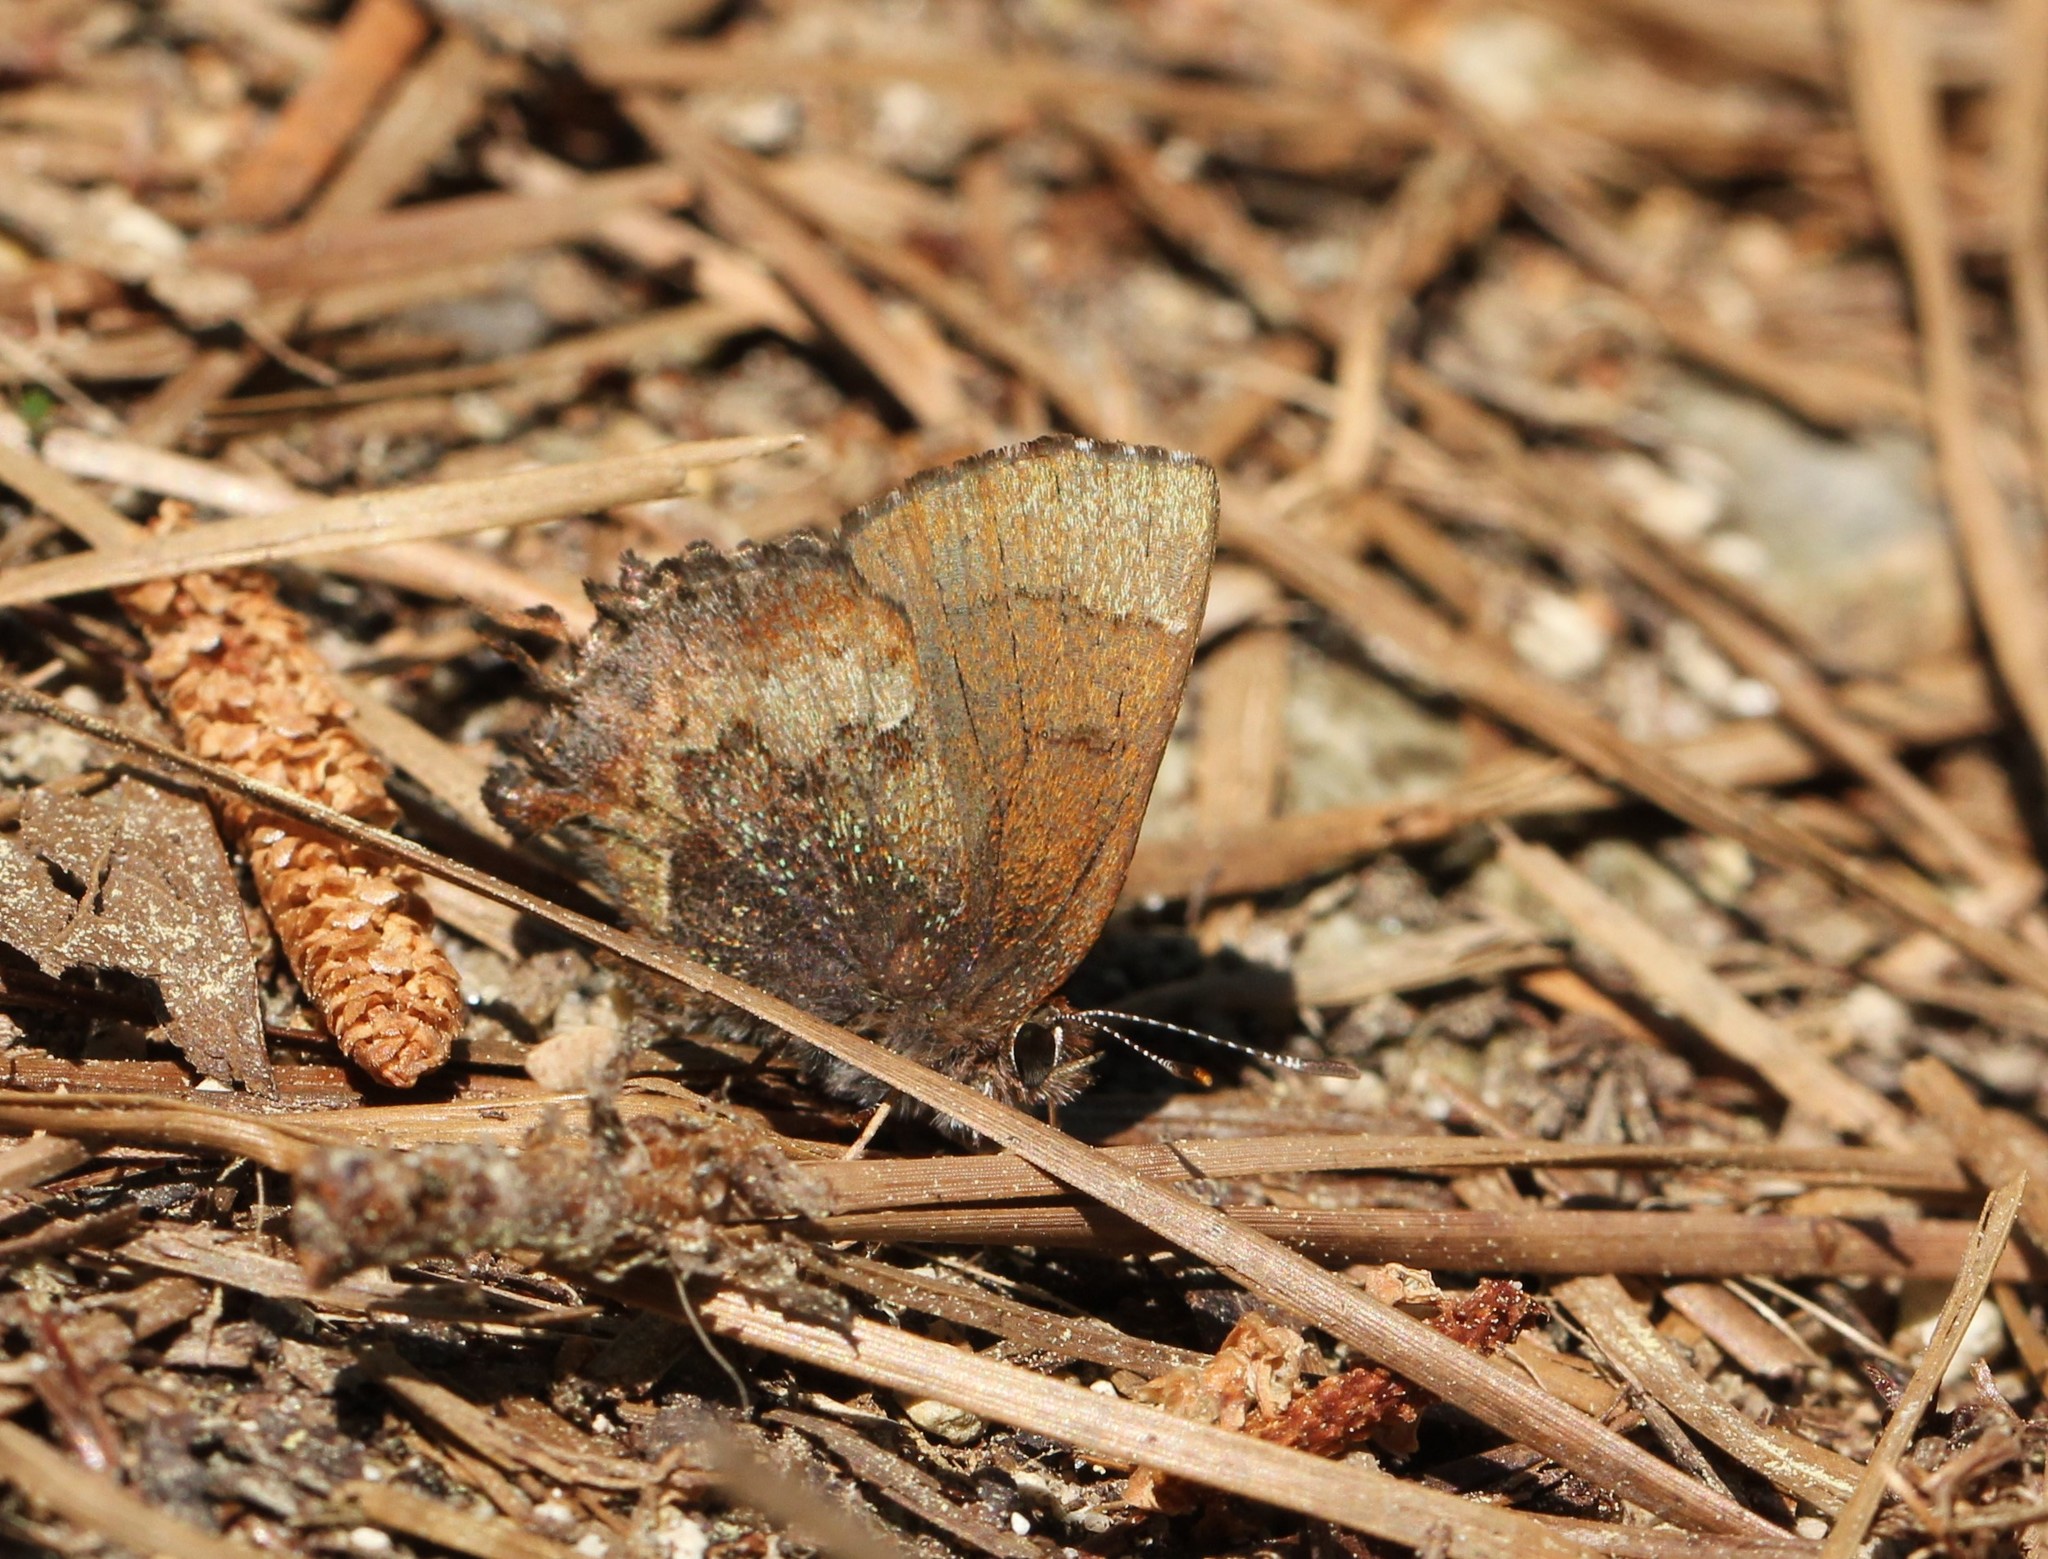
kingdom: Animalia
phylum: Arthropoda
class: Insecta
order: Lepidoptera
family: Lycaenidae
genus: Incisalia
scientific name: Incisalia henrici
